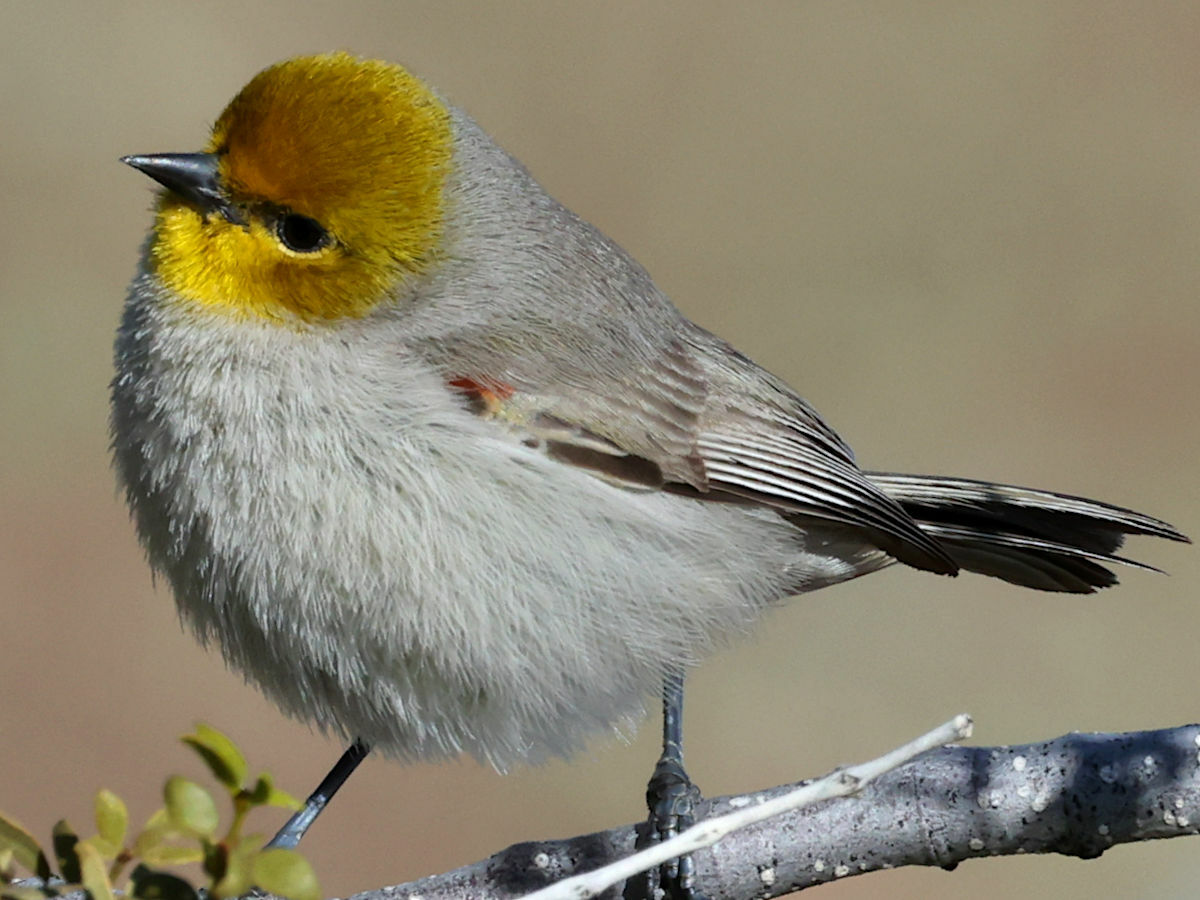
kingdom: Animalia
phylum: Chordata
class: Aves
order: Passeriformes
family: Remizidae
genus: Auriparus
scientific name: Auriparus flaviceps
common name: Verdin
